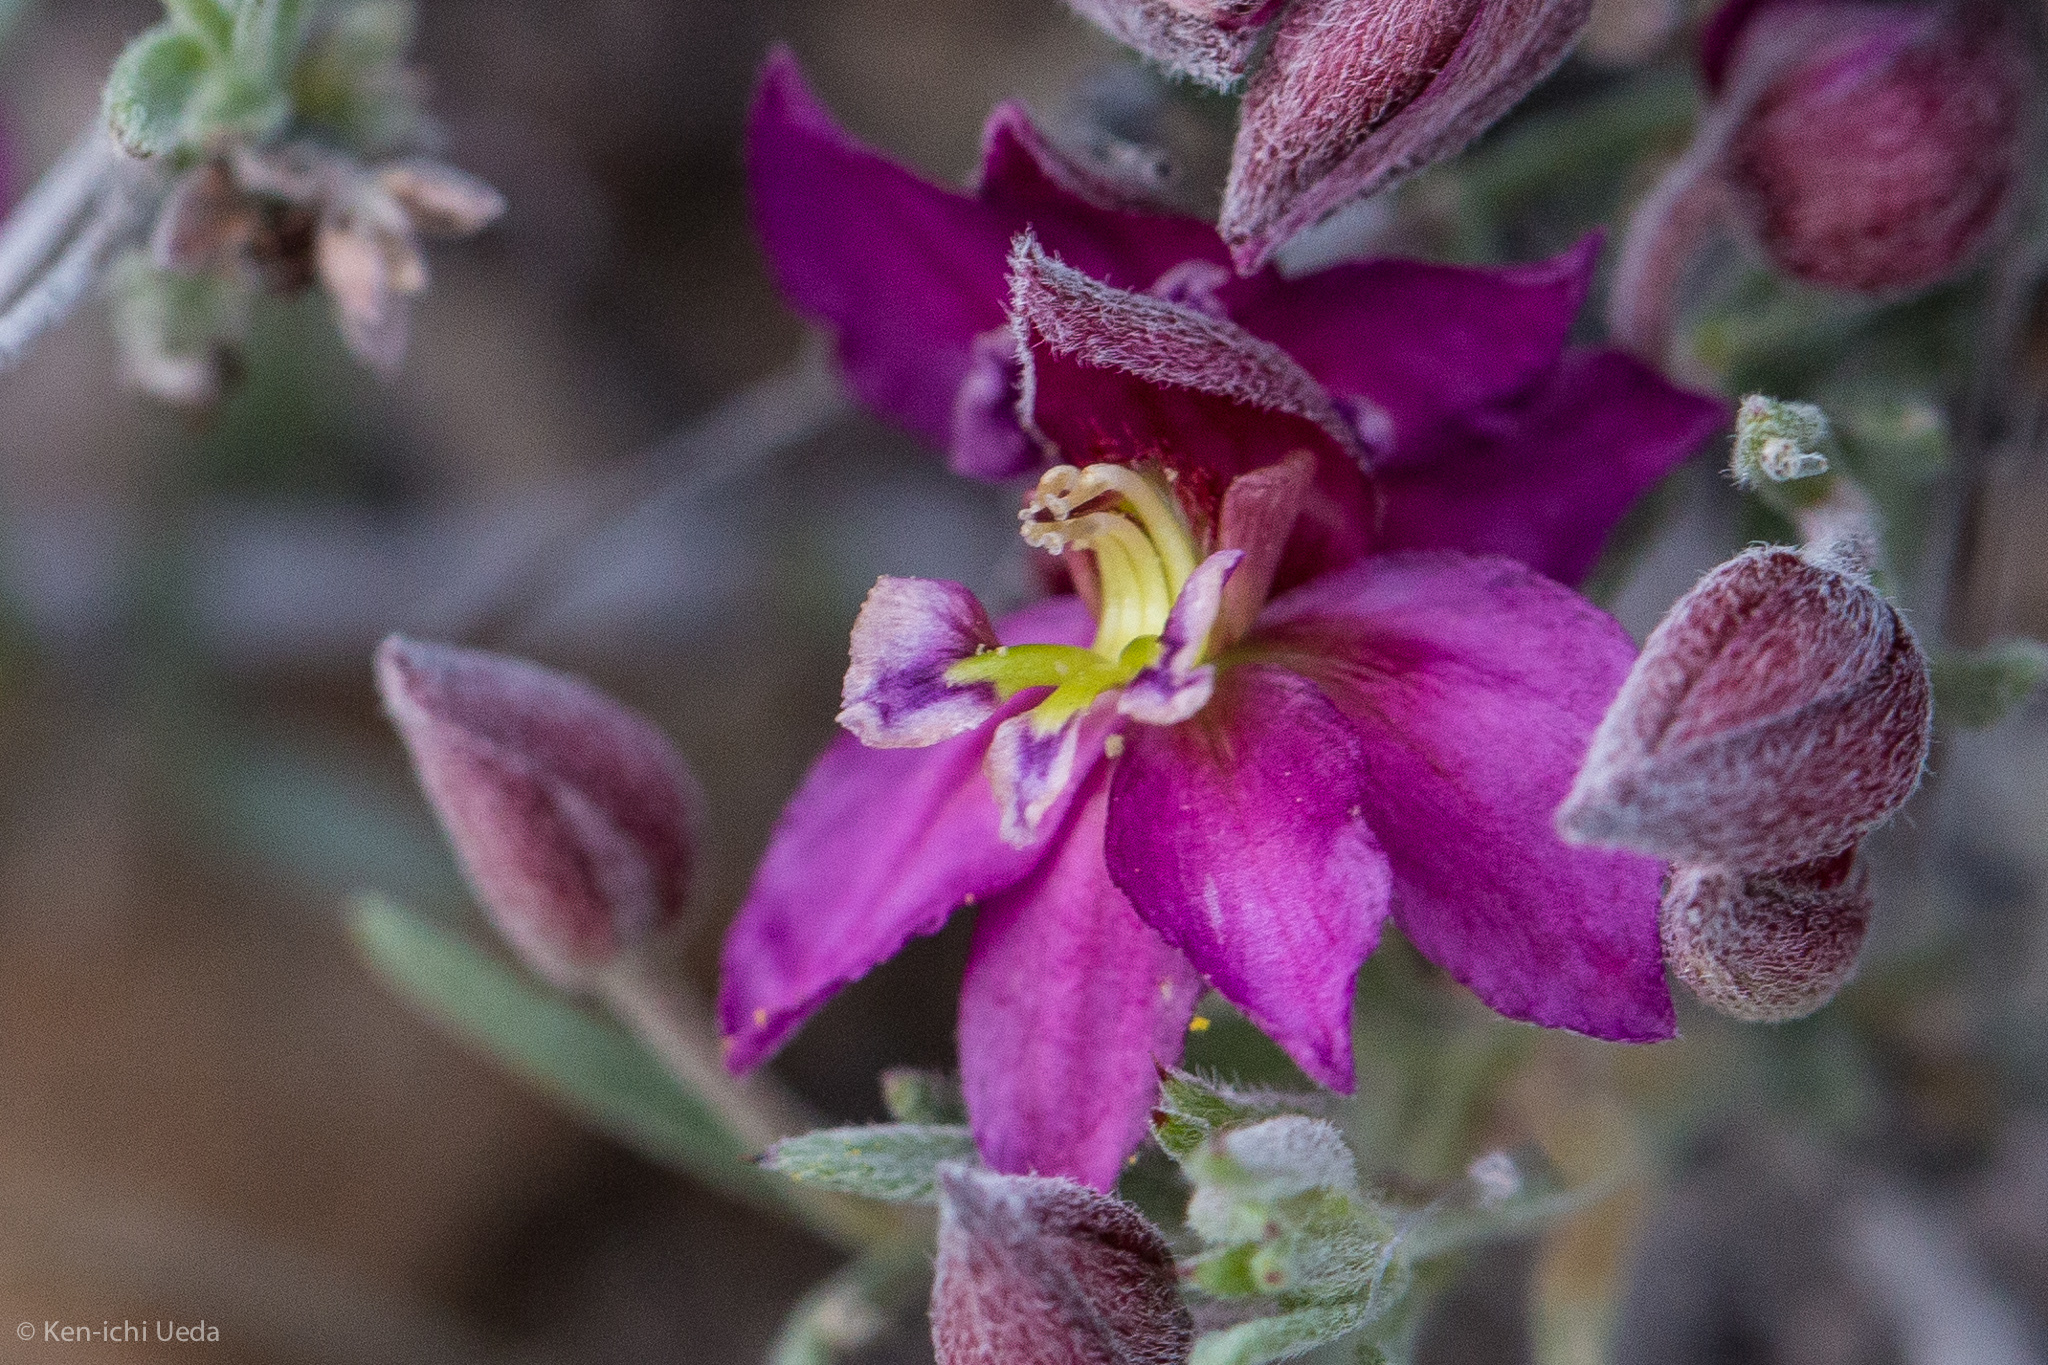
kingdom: Plantae
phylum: Tracheophyta
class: Magnoliopsida
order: Zygophyllales
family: Krameriaceae
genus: Krameria
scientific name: Krameria erecta
